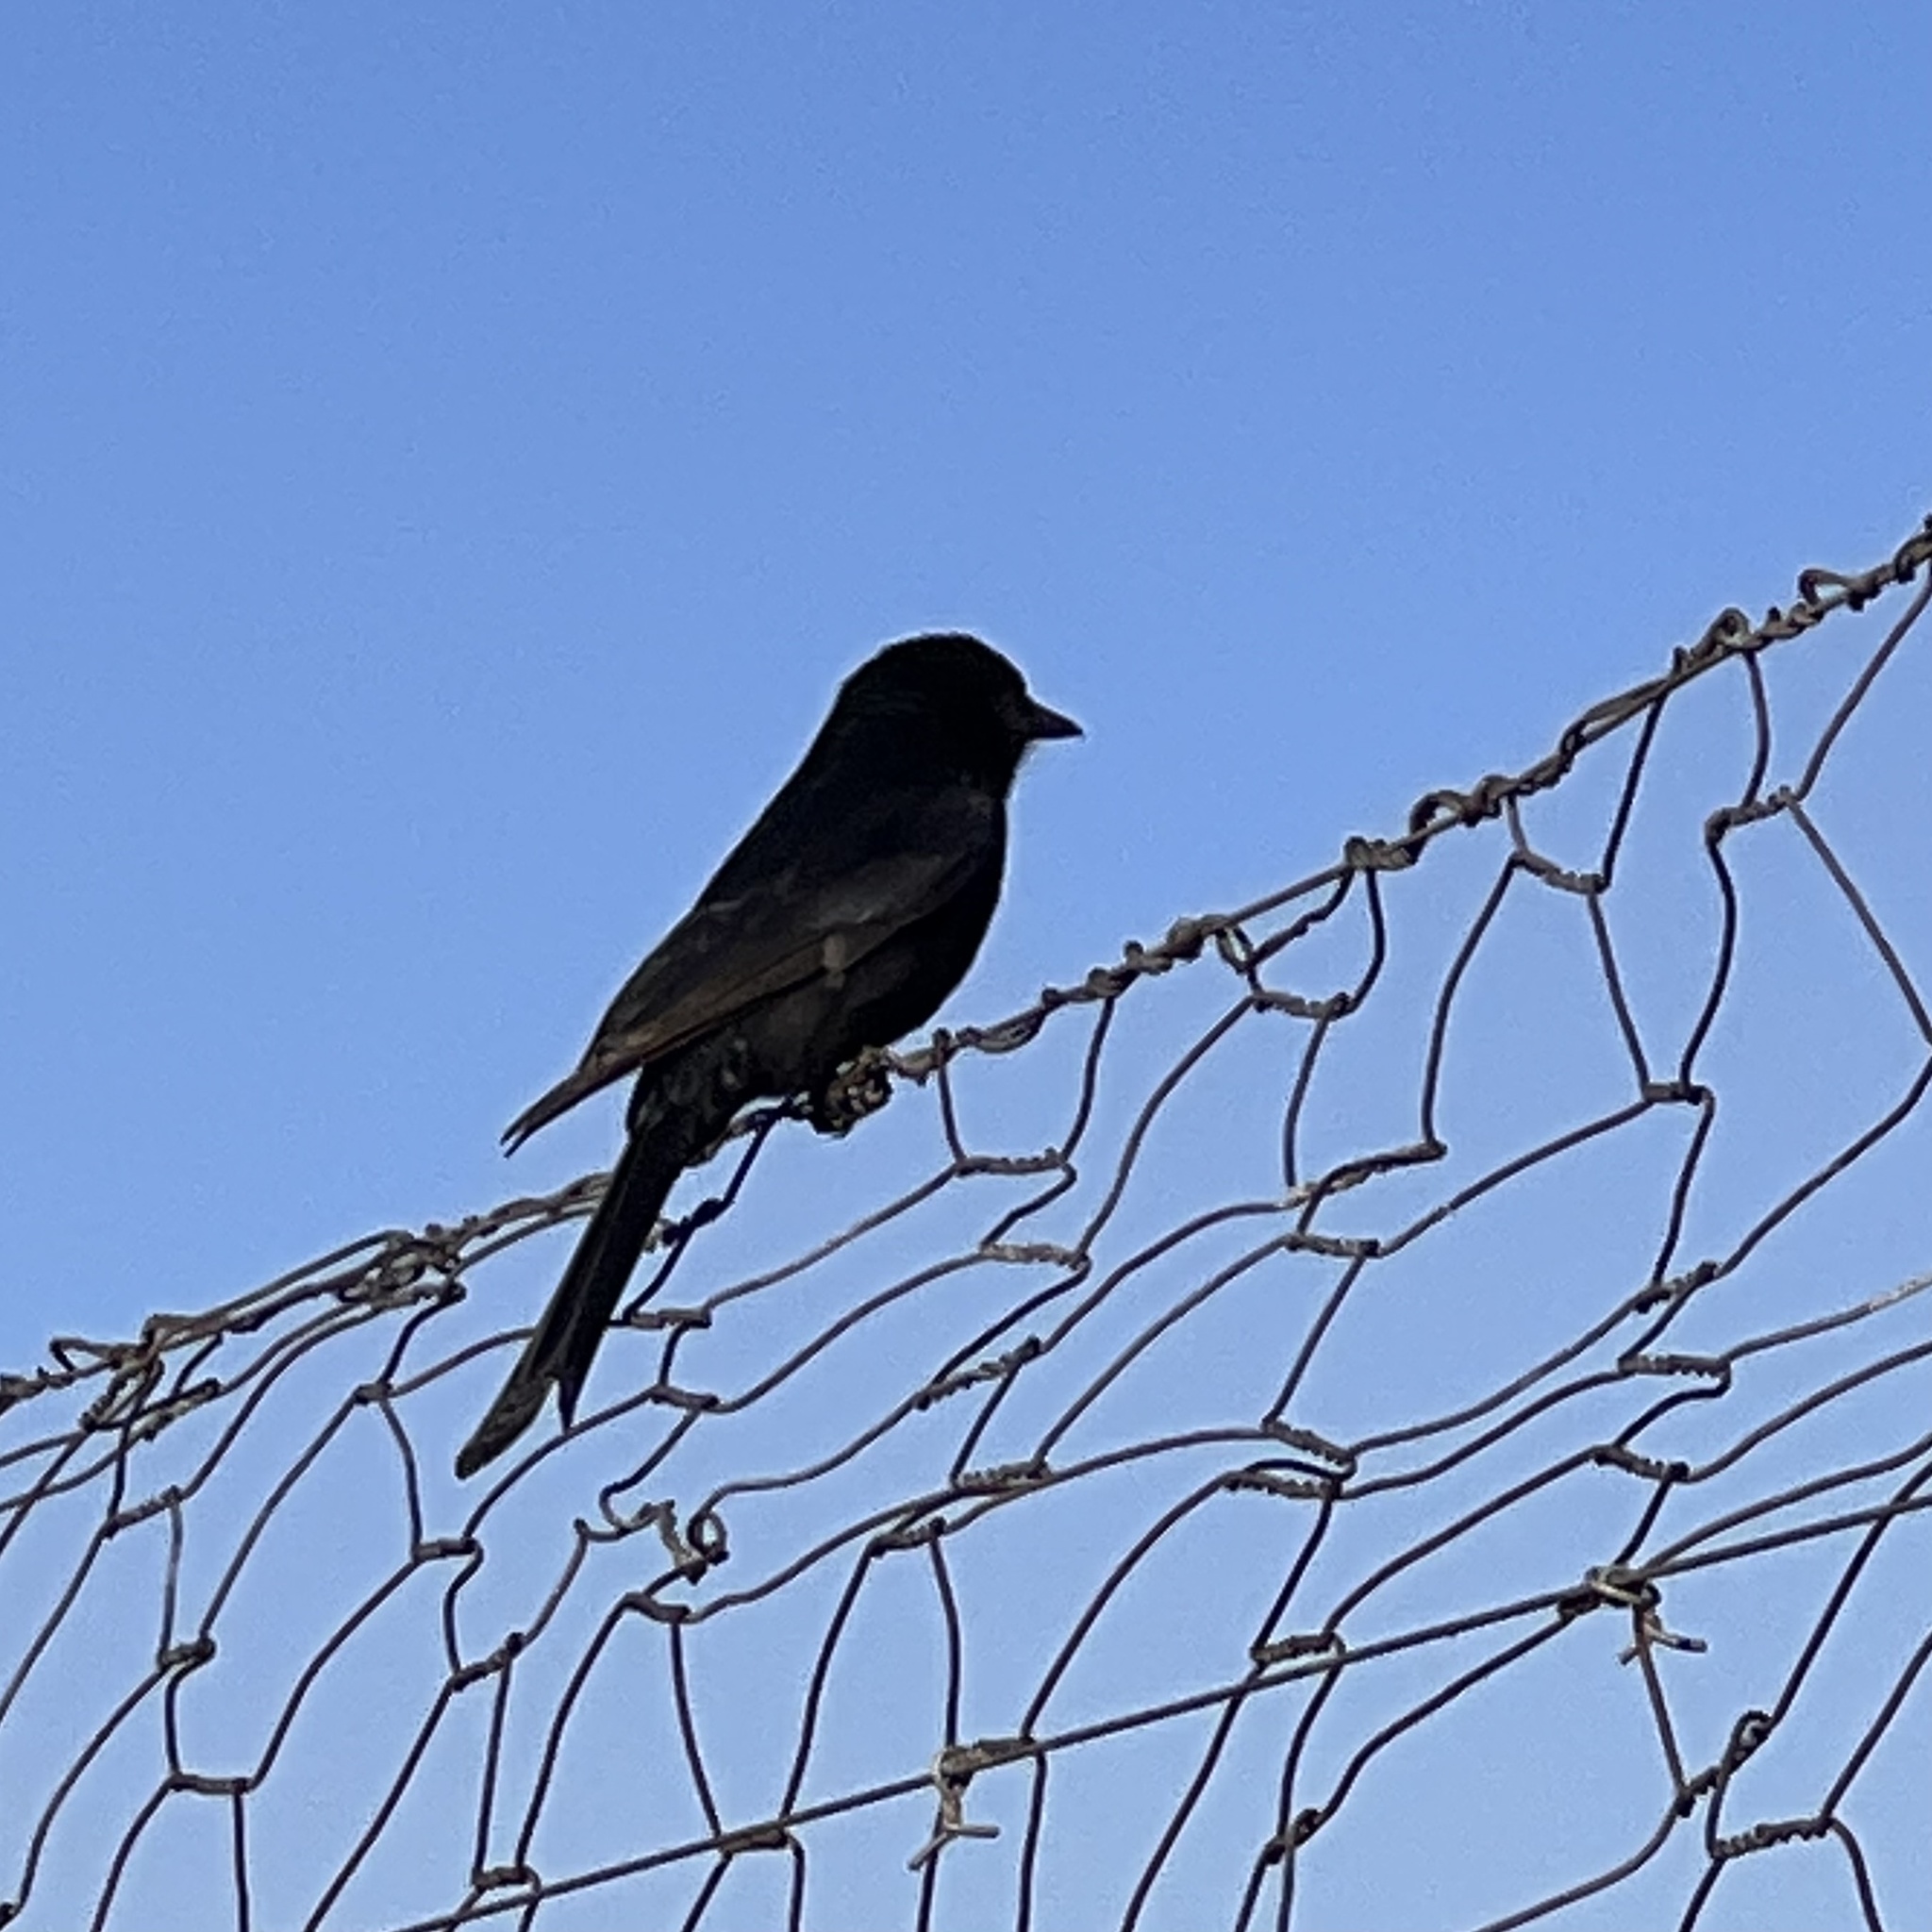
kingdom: Animalia
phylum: Chordata
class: Aves
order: Passeriformes
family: Dicruridae
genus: Dicrurus
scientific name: Dicrurus adsimilis
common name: Fork-tailed drongo
